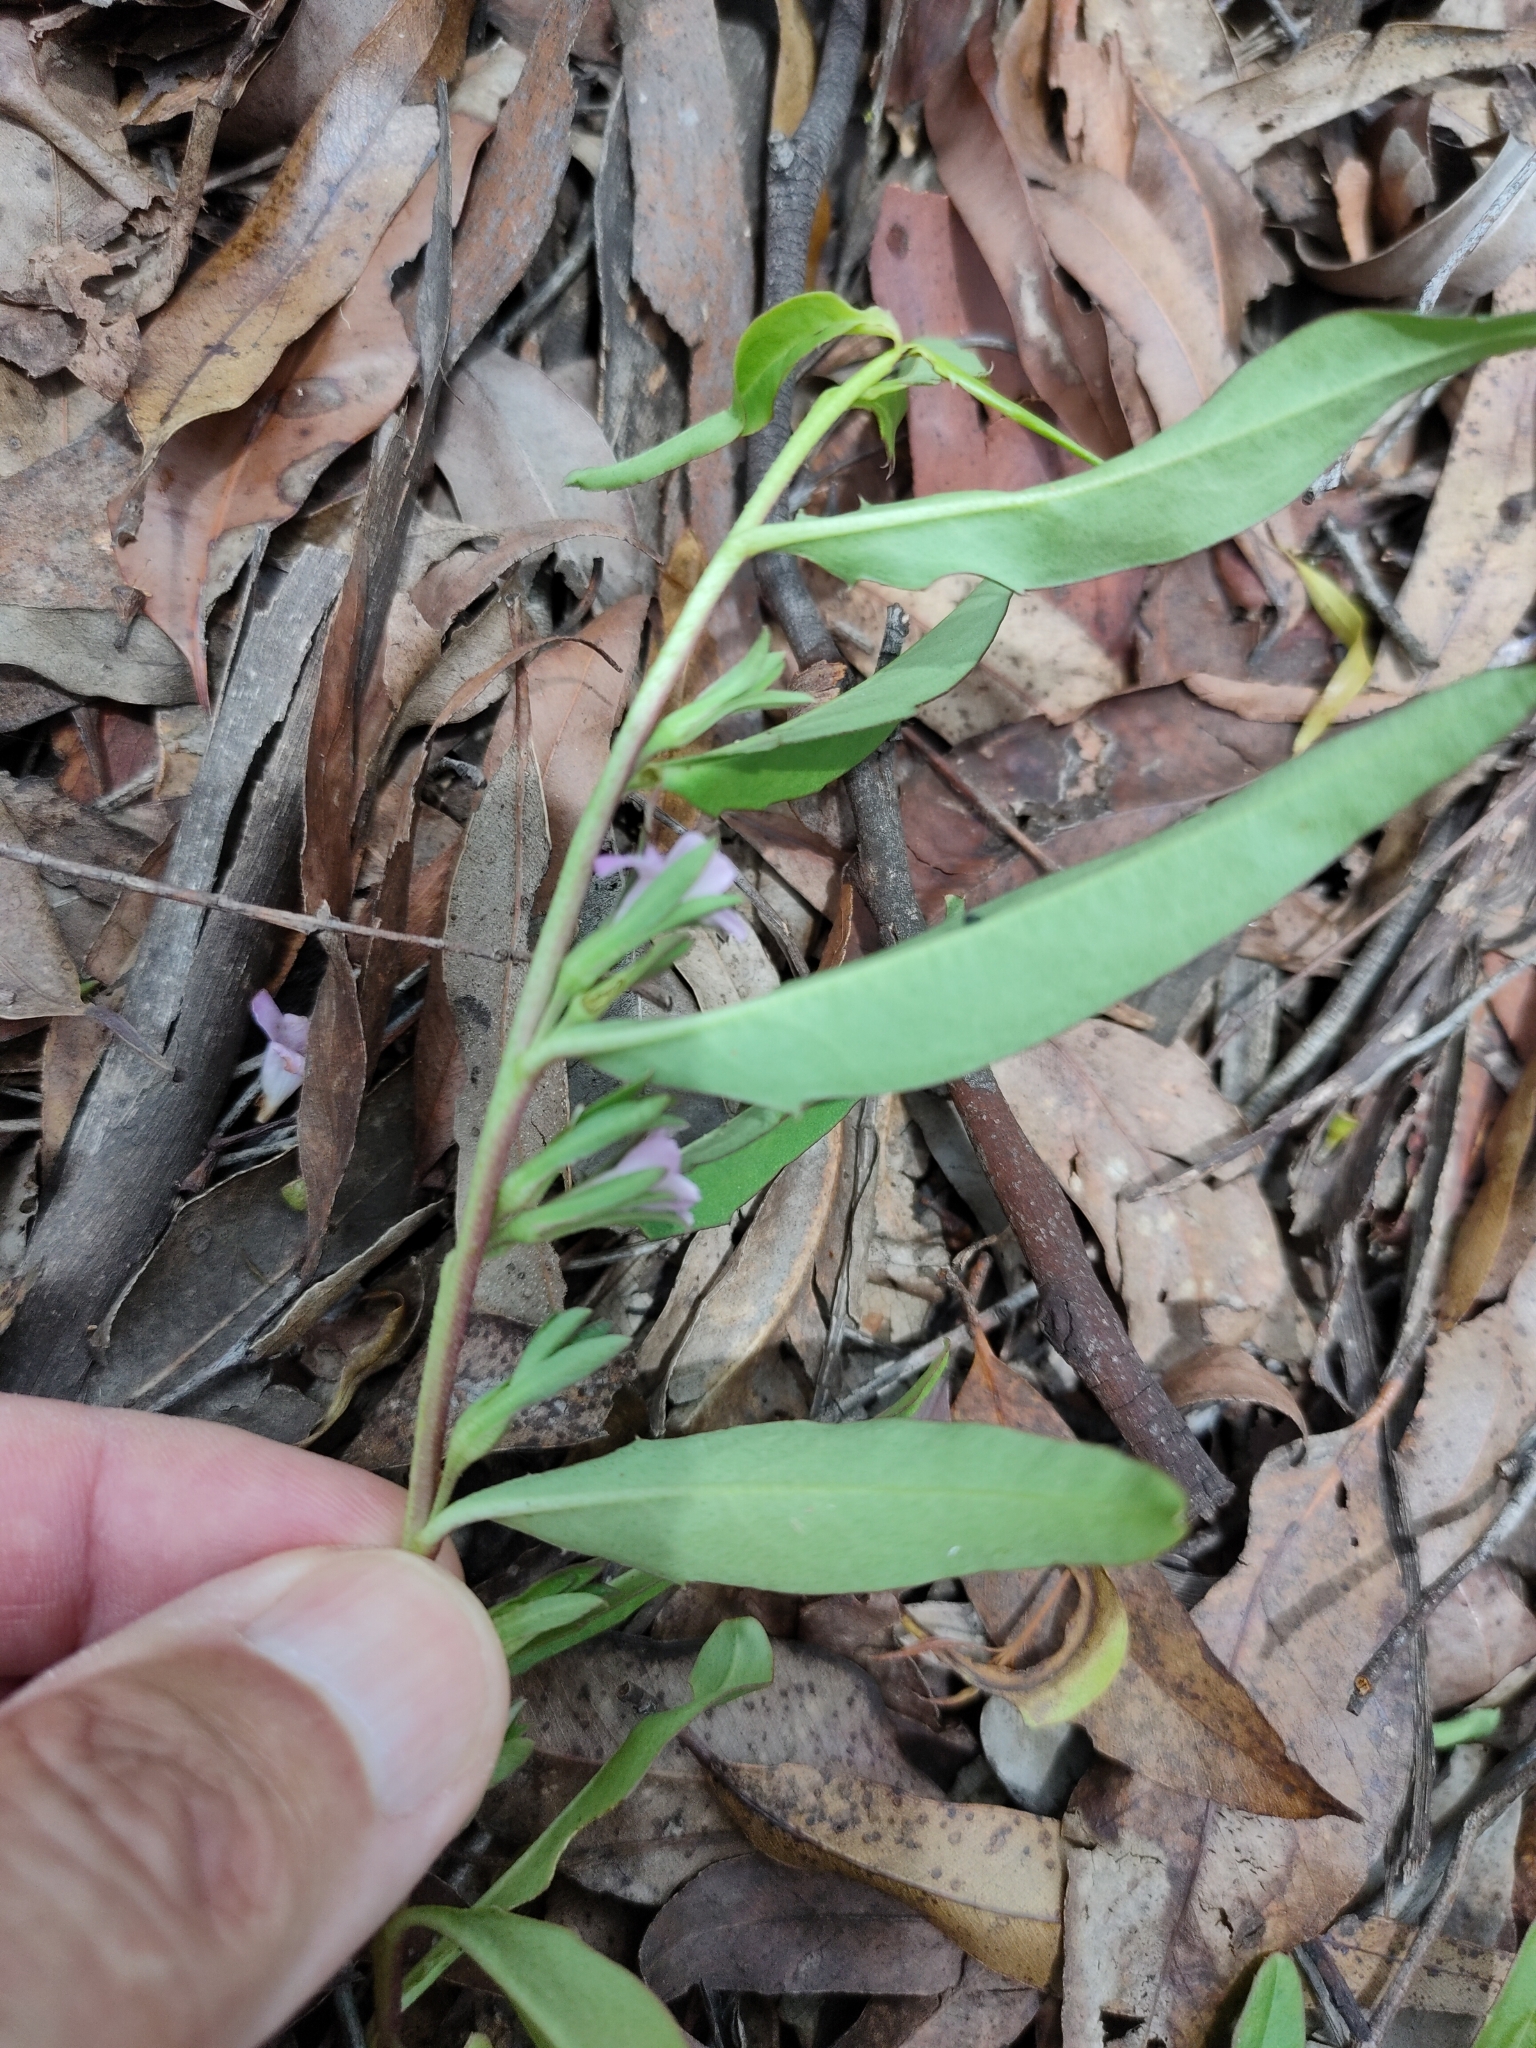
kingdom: Plantae
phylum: Tracheophyta
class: Magnoliopsida
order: Lamiales
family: Scrophulariaceae
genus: Eremophila
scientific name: Eremophila debilis
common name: Winter-apple
